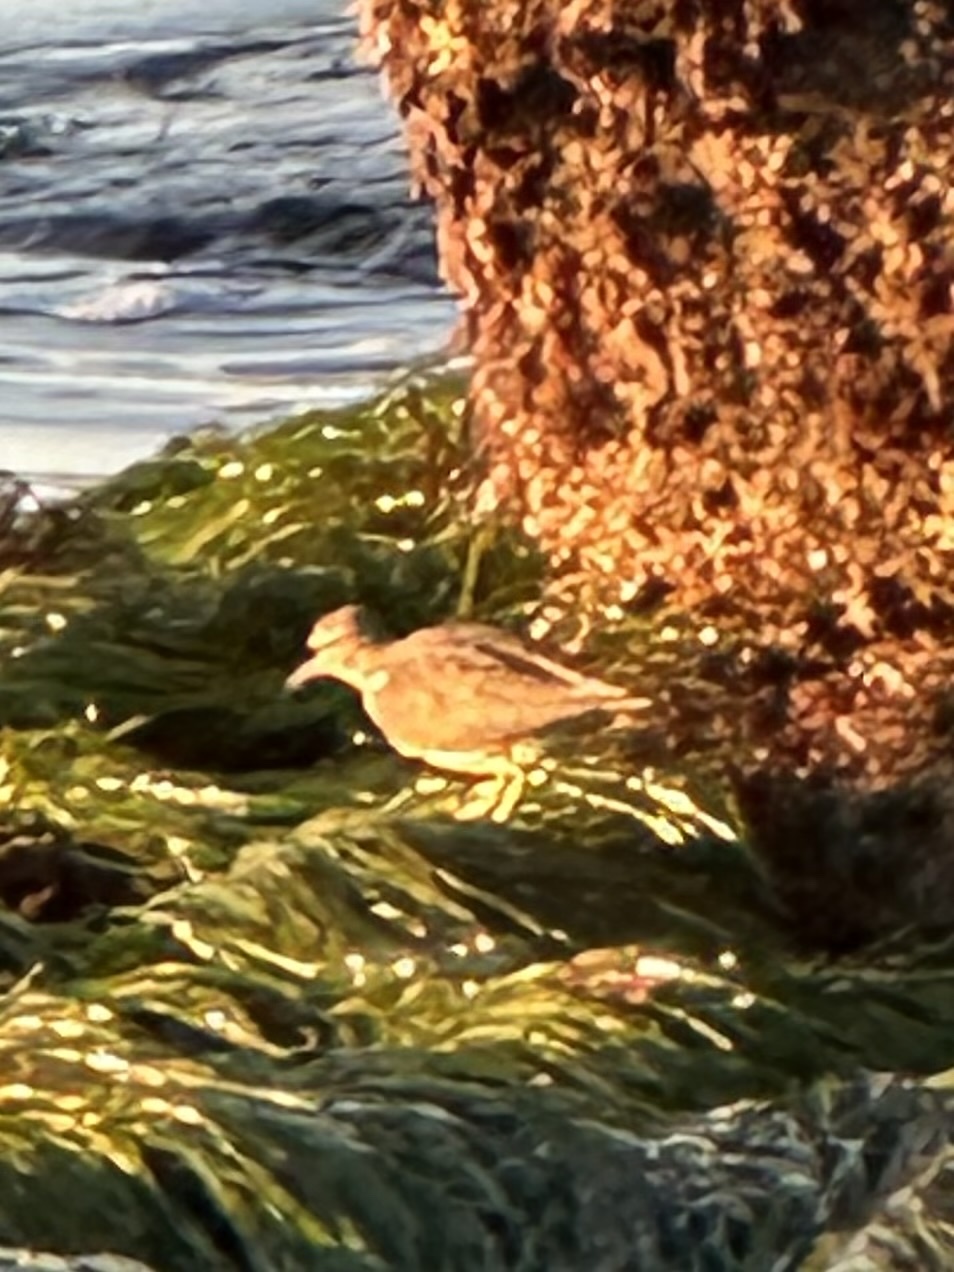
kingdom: Animalia
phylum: Chordata
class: Aves
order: Charadriiformes
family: Scolopacidae
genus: Actitis
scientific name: Actitis macularius
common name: Spotted sandpiper
